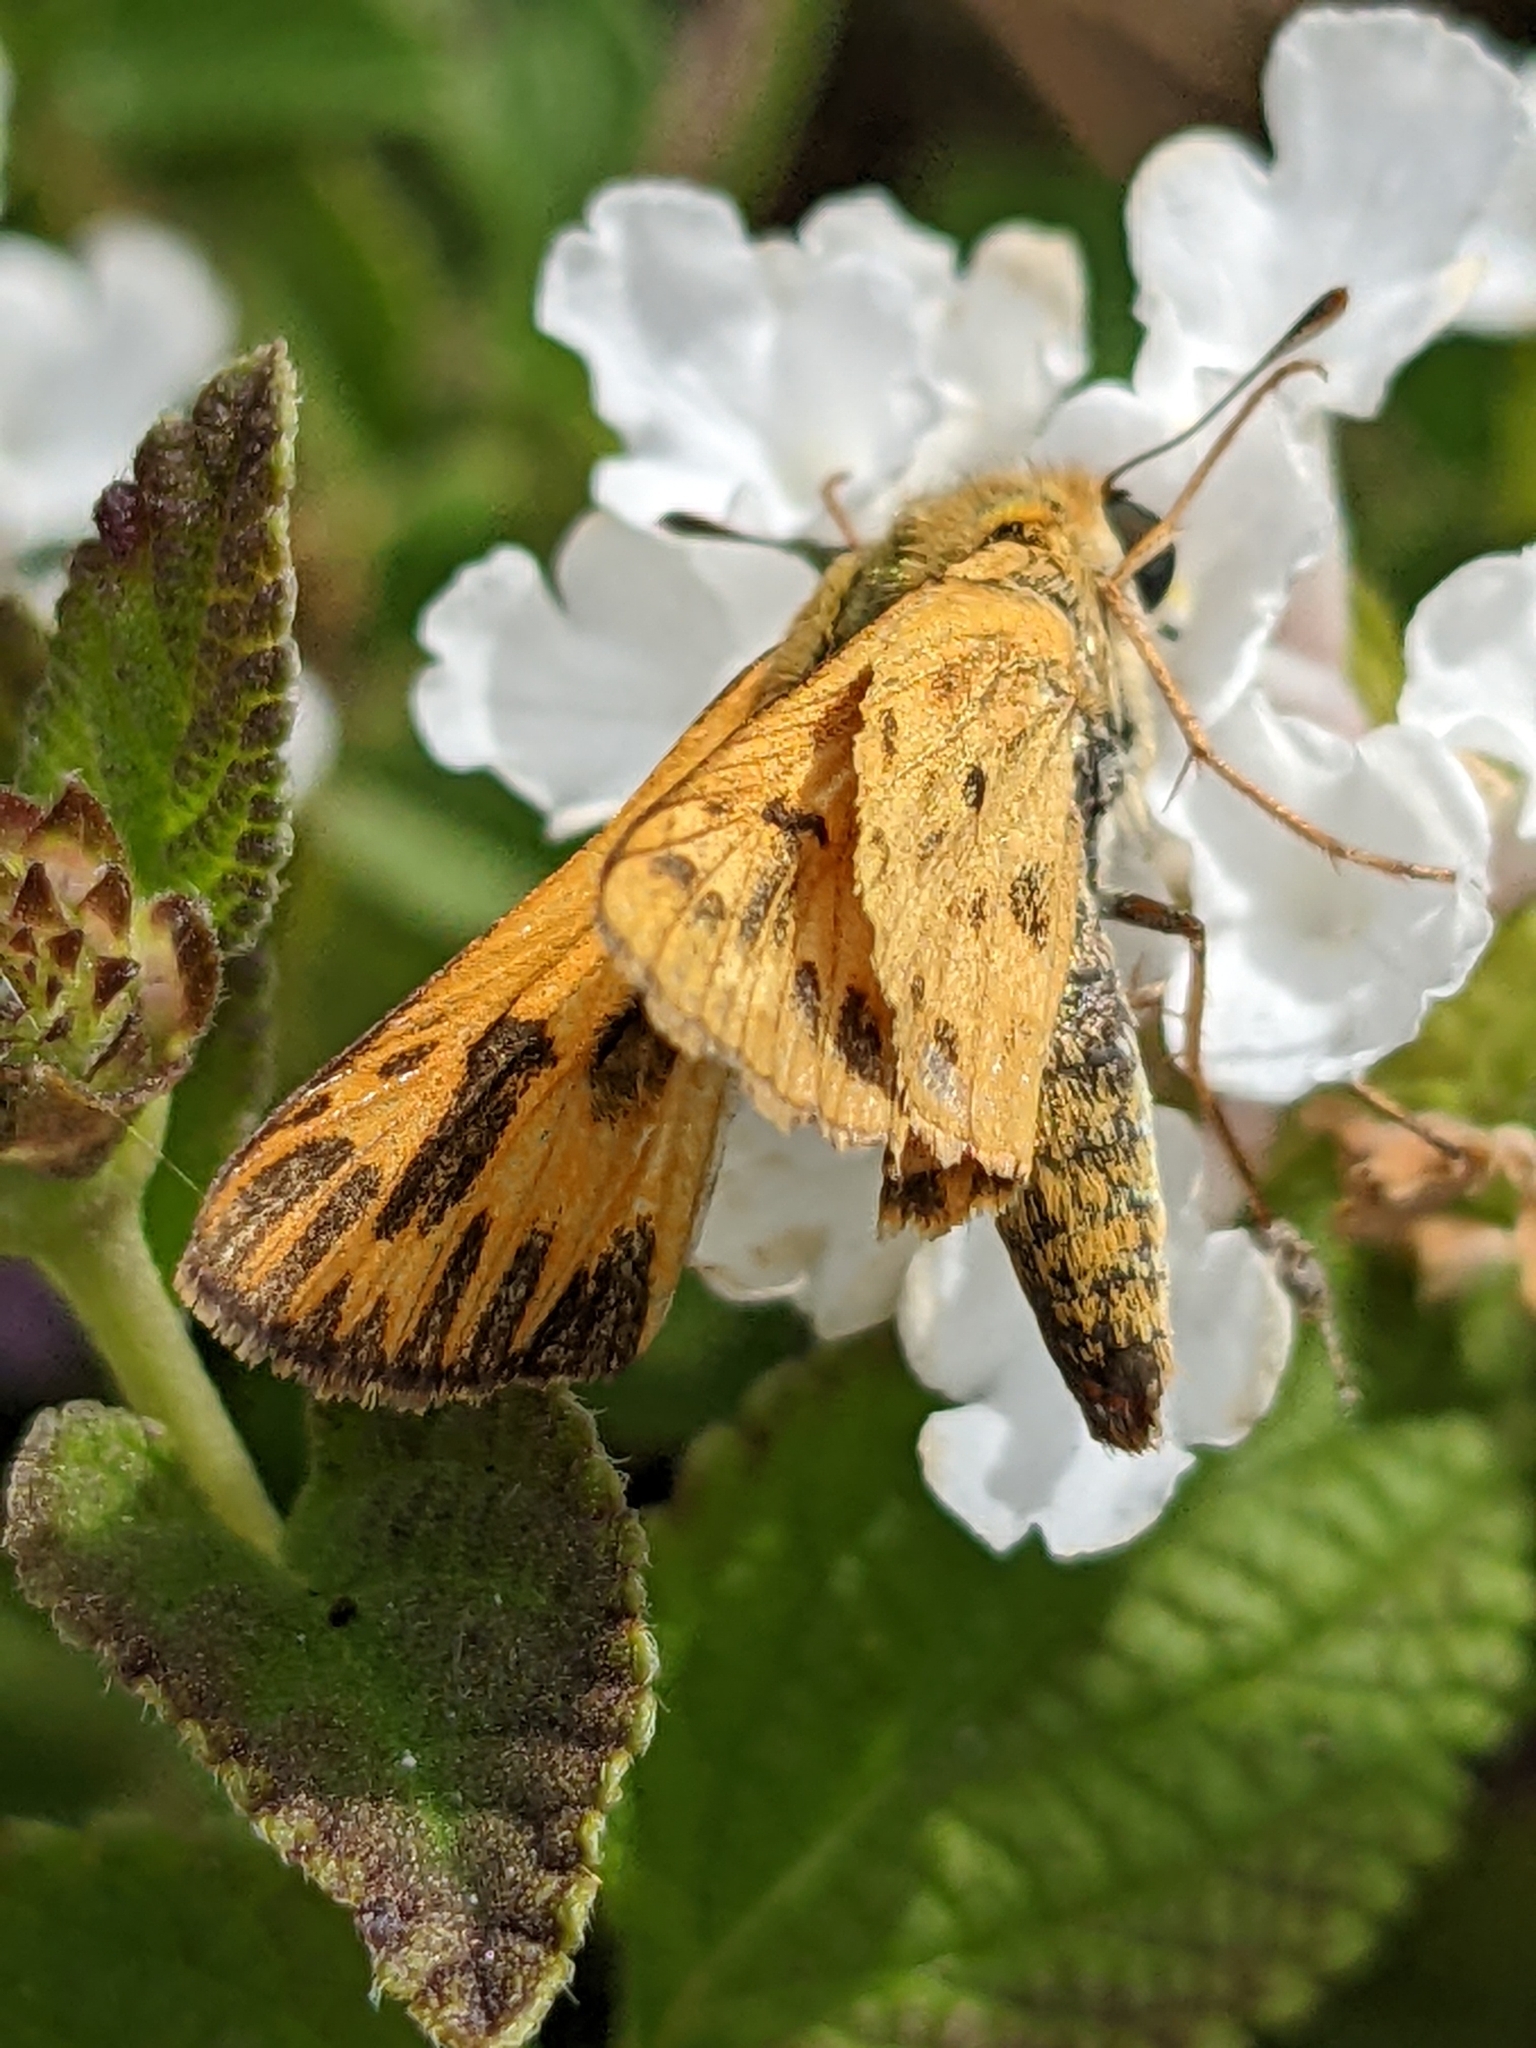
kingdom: Animalia
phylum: Arthropoda
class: Insecta
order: Lepidoptera
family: Hesperiidae
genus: Hylephila
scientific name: Hylephila phyleus
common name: Fiery skipper
